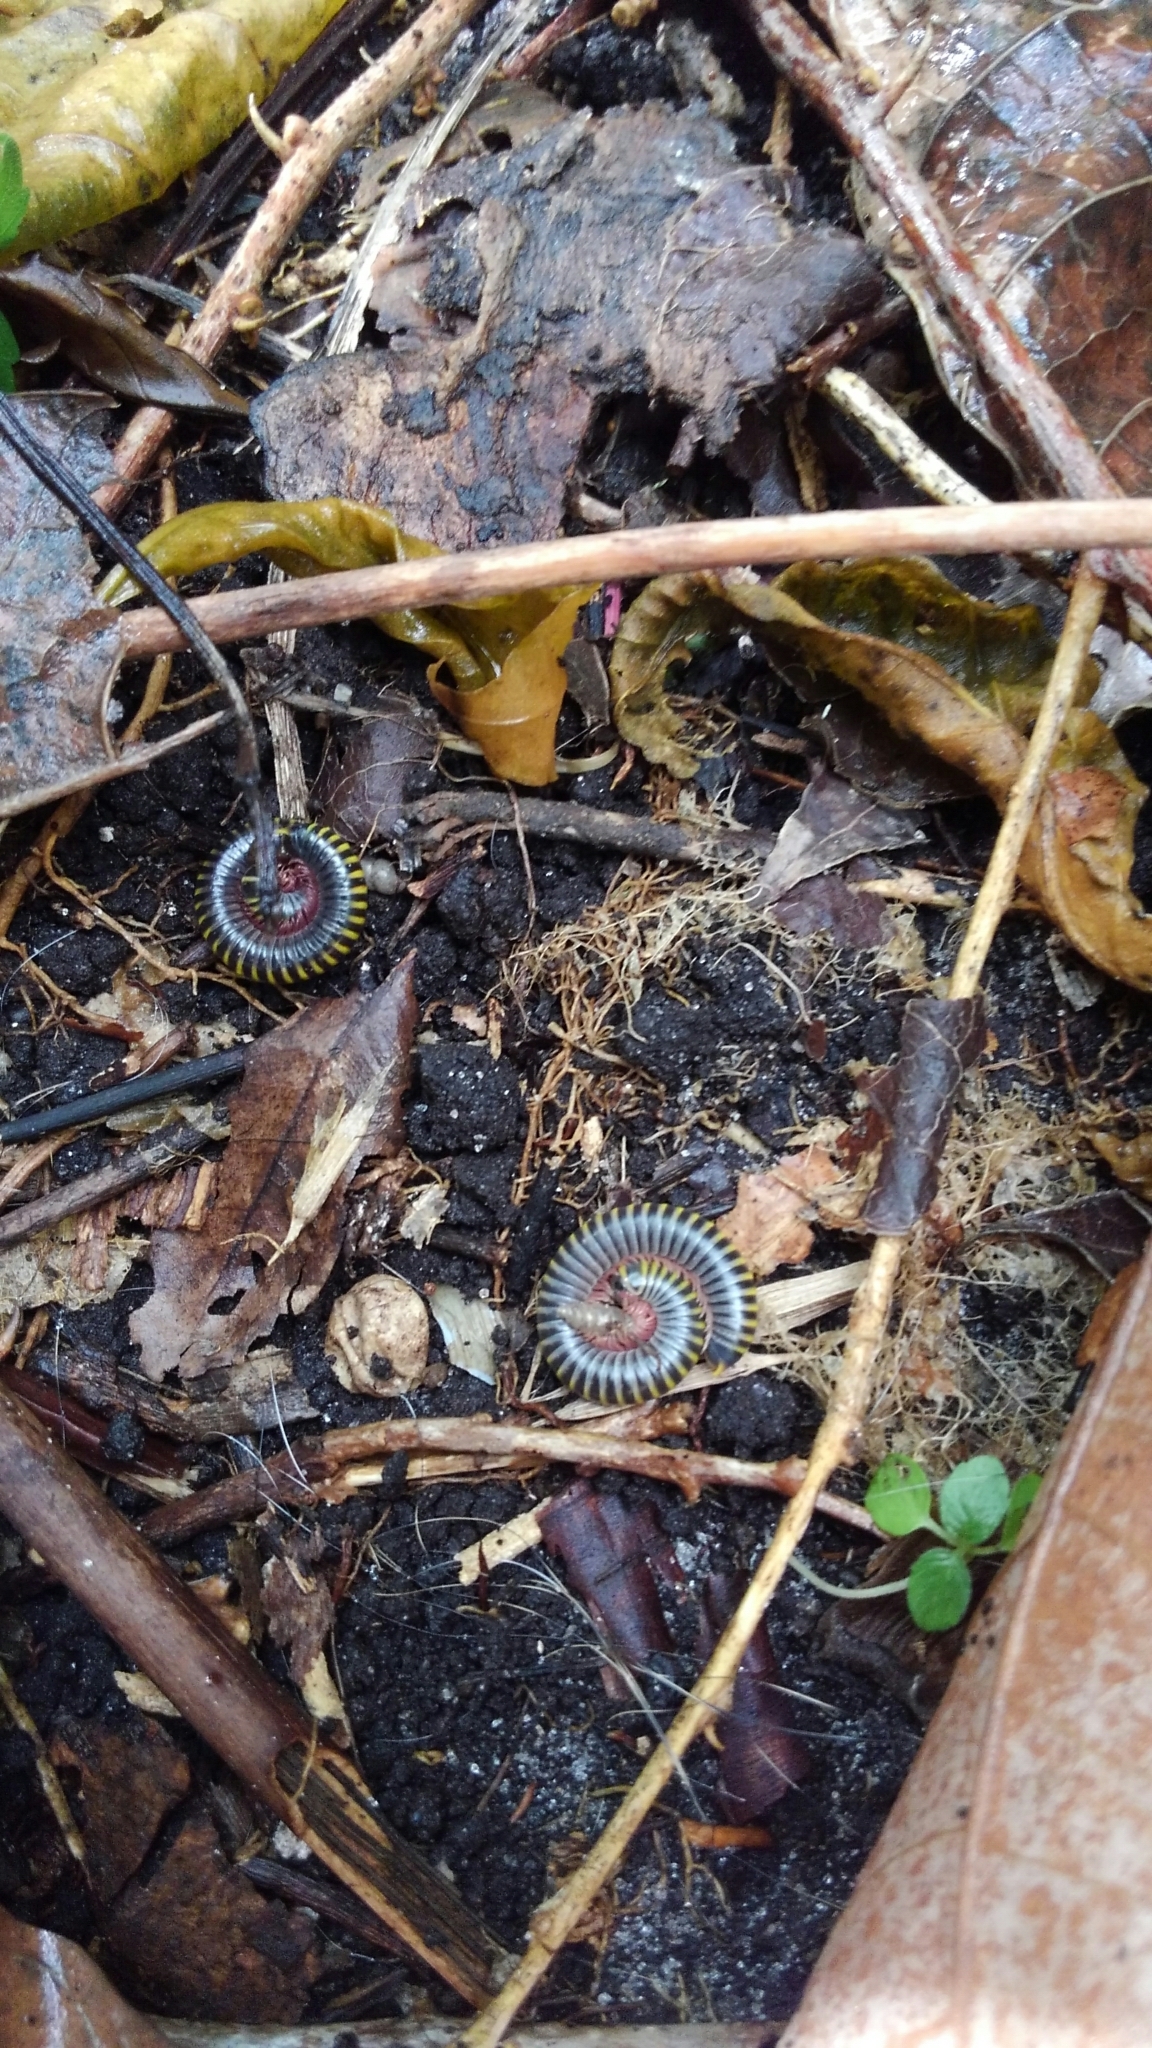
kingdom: Animalia
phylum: Arthropoda
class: Diplopoda
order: Spirobolida
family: Rhinocricidae
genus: Anadenobolus
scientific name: Anadenobolus monilicornis
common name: Caribbean millipede
